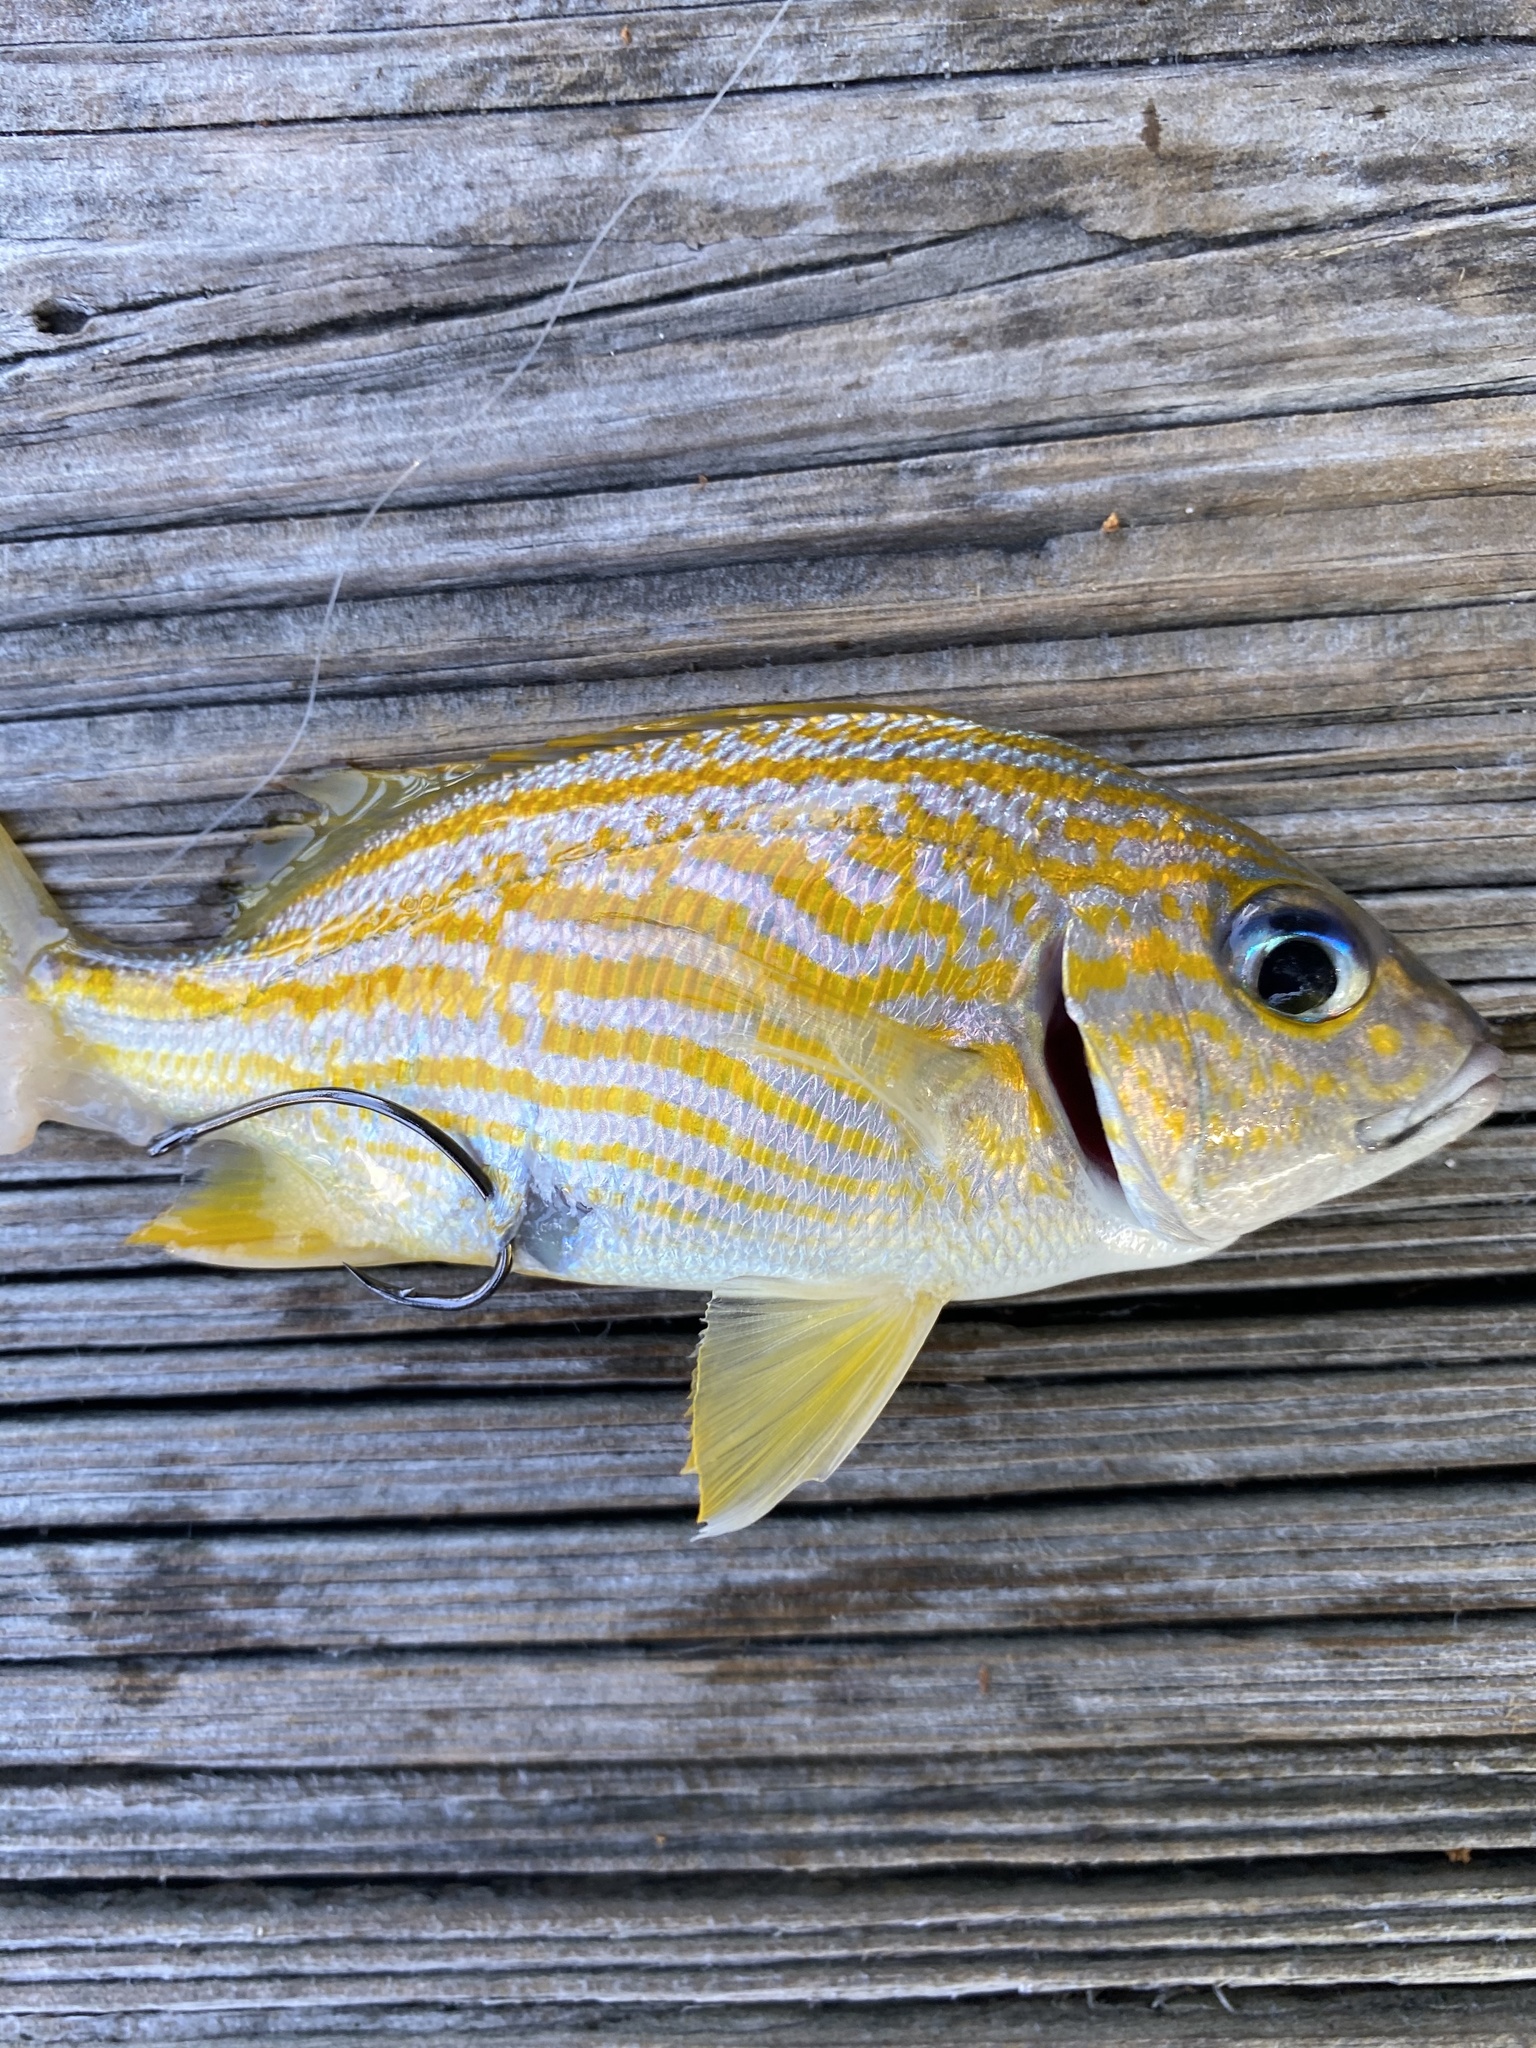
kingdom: Animalia
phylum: Chordata
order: Perciformes
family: Haemulidae
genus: Haemulon
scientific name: Haemulon flavolineatum
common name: French grunt
